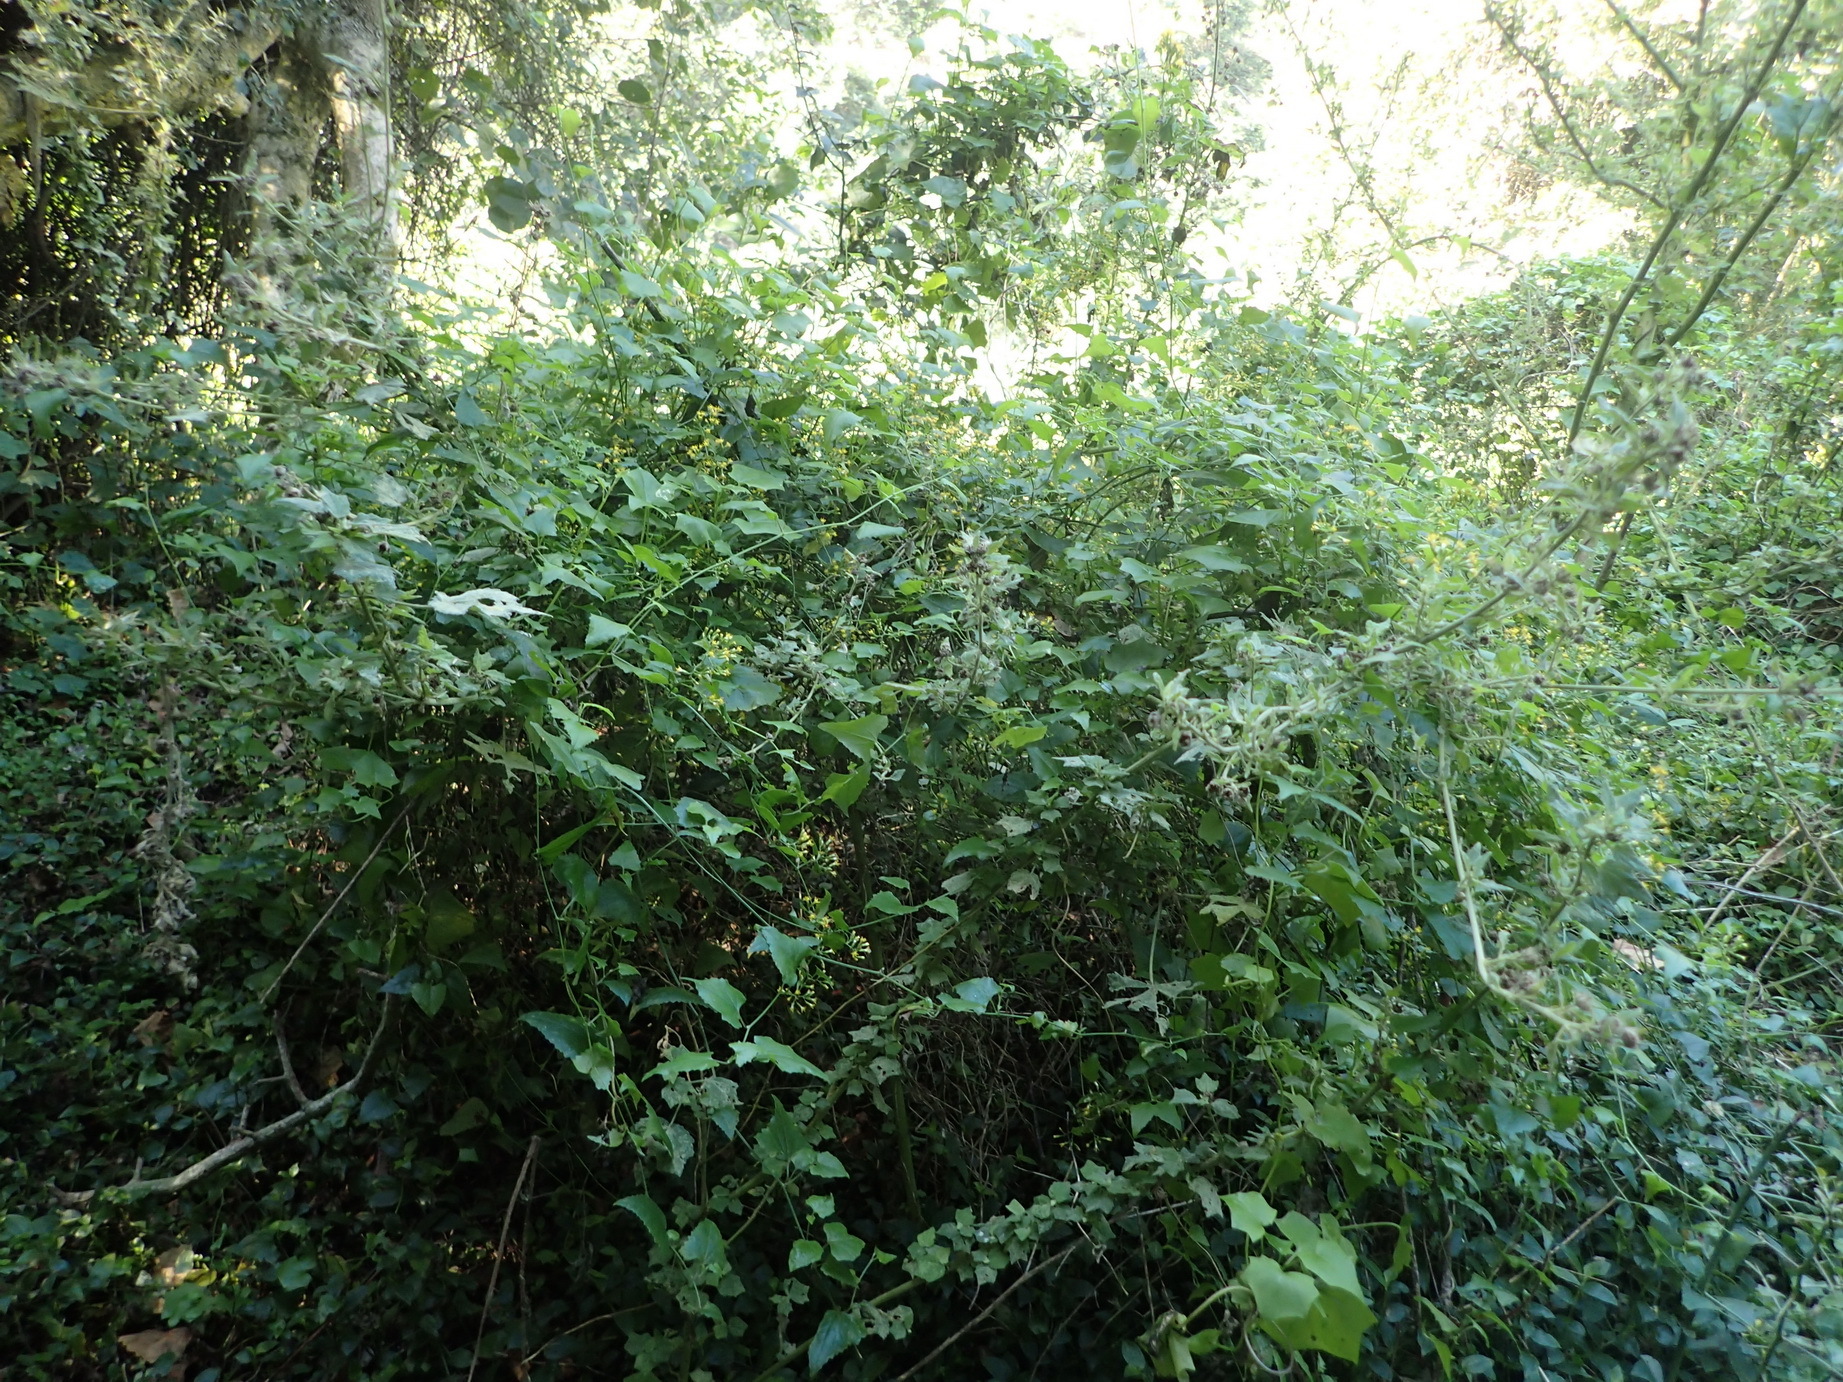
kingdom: Plantae
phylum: Tracheophyta
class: Magnoliopsida
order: Asterales
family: Asteraceae
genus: Senecio
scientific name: Senecio deltoideus
